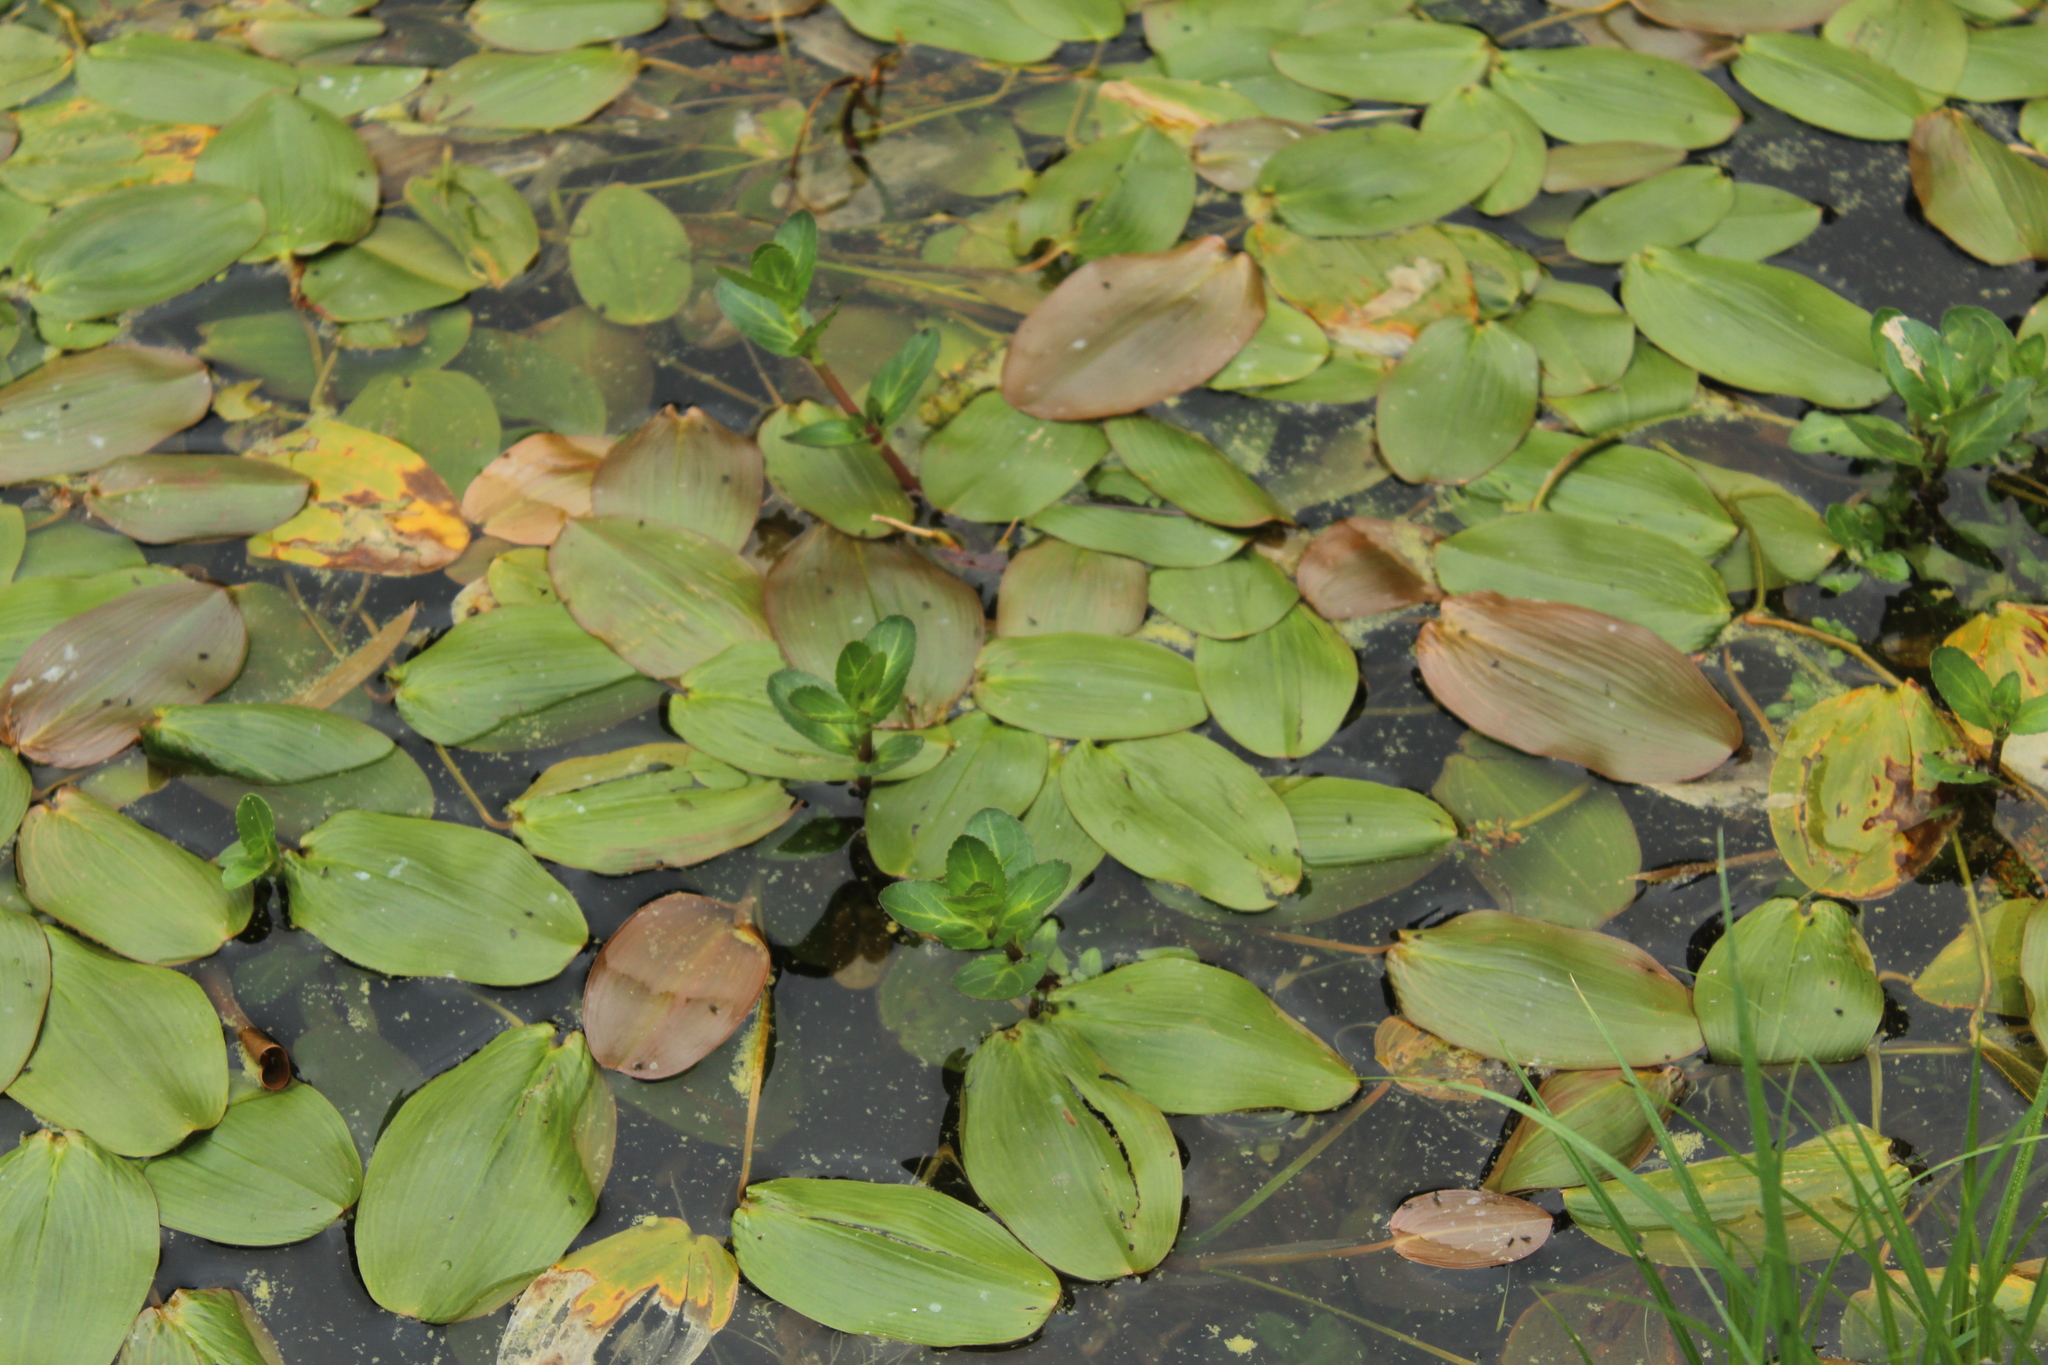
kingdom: Plantae
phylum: Tracheophyta
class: Liliopsida
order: Alismatales
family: Potamogetonaceae
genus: Potamogeton
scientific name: Potamogeton natans
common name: Broad-leaved pondweed
